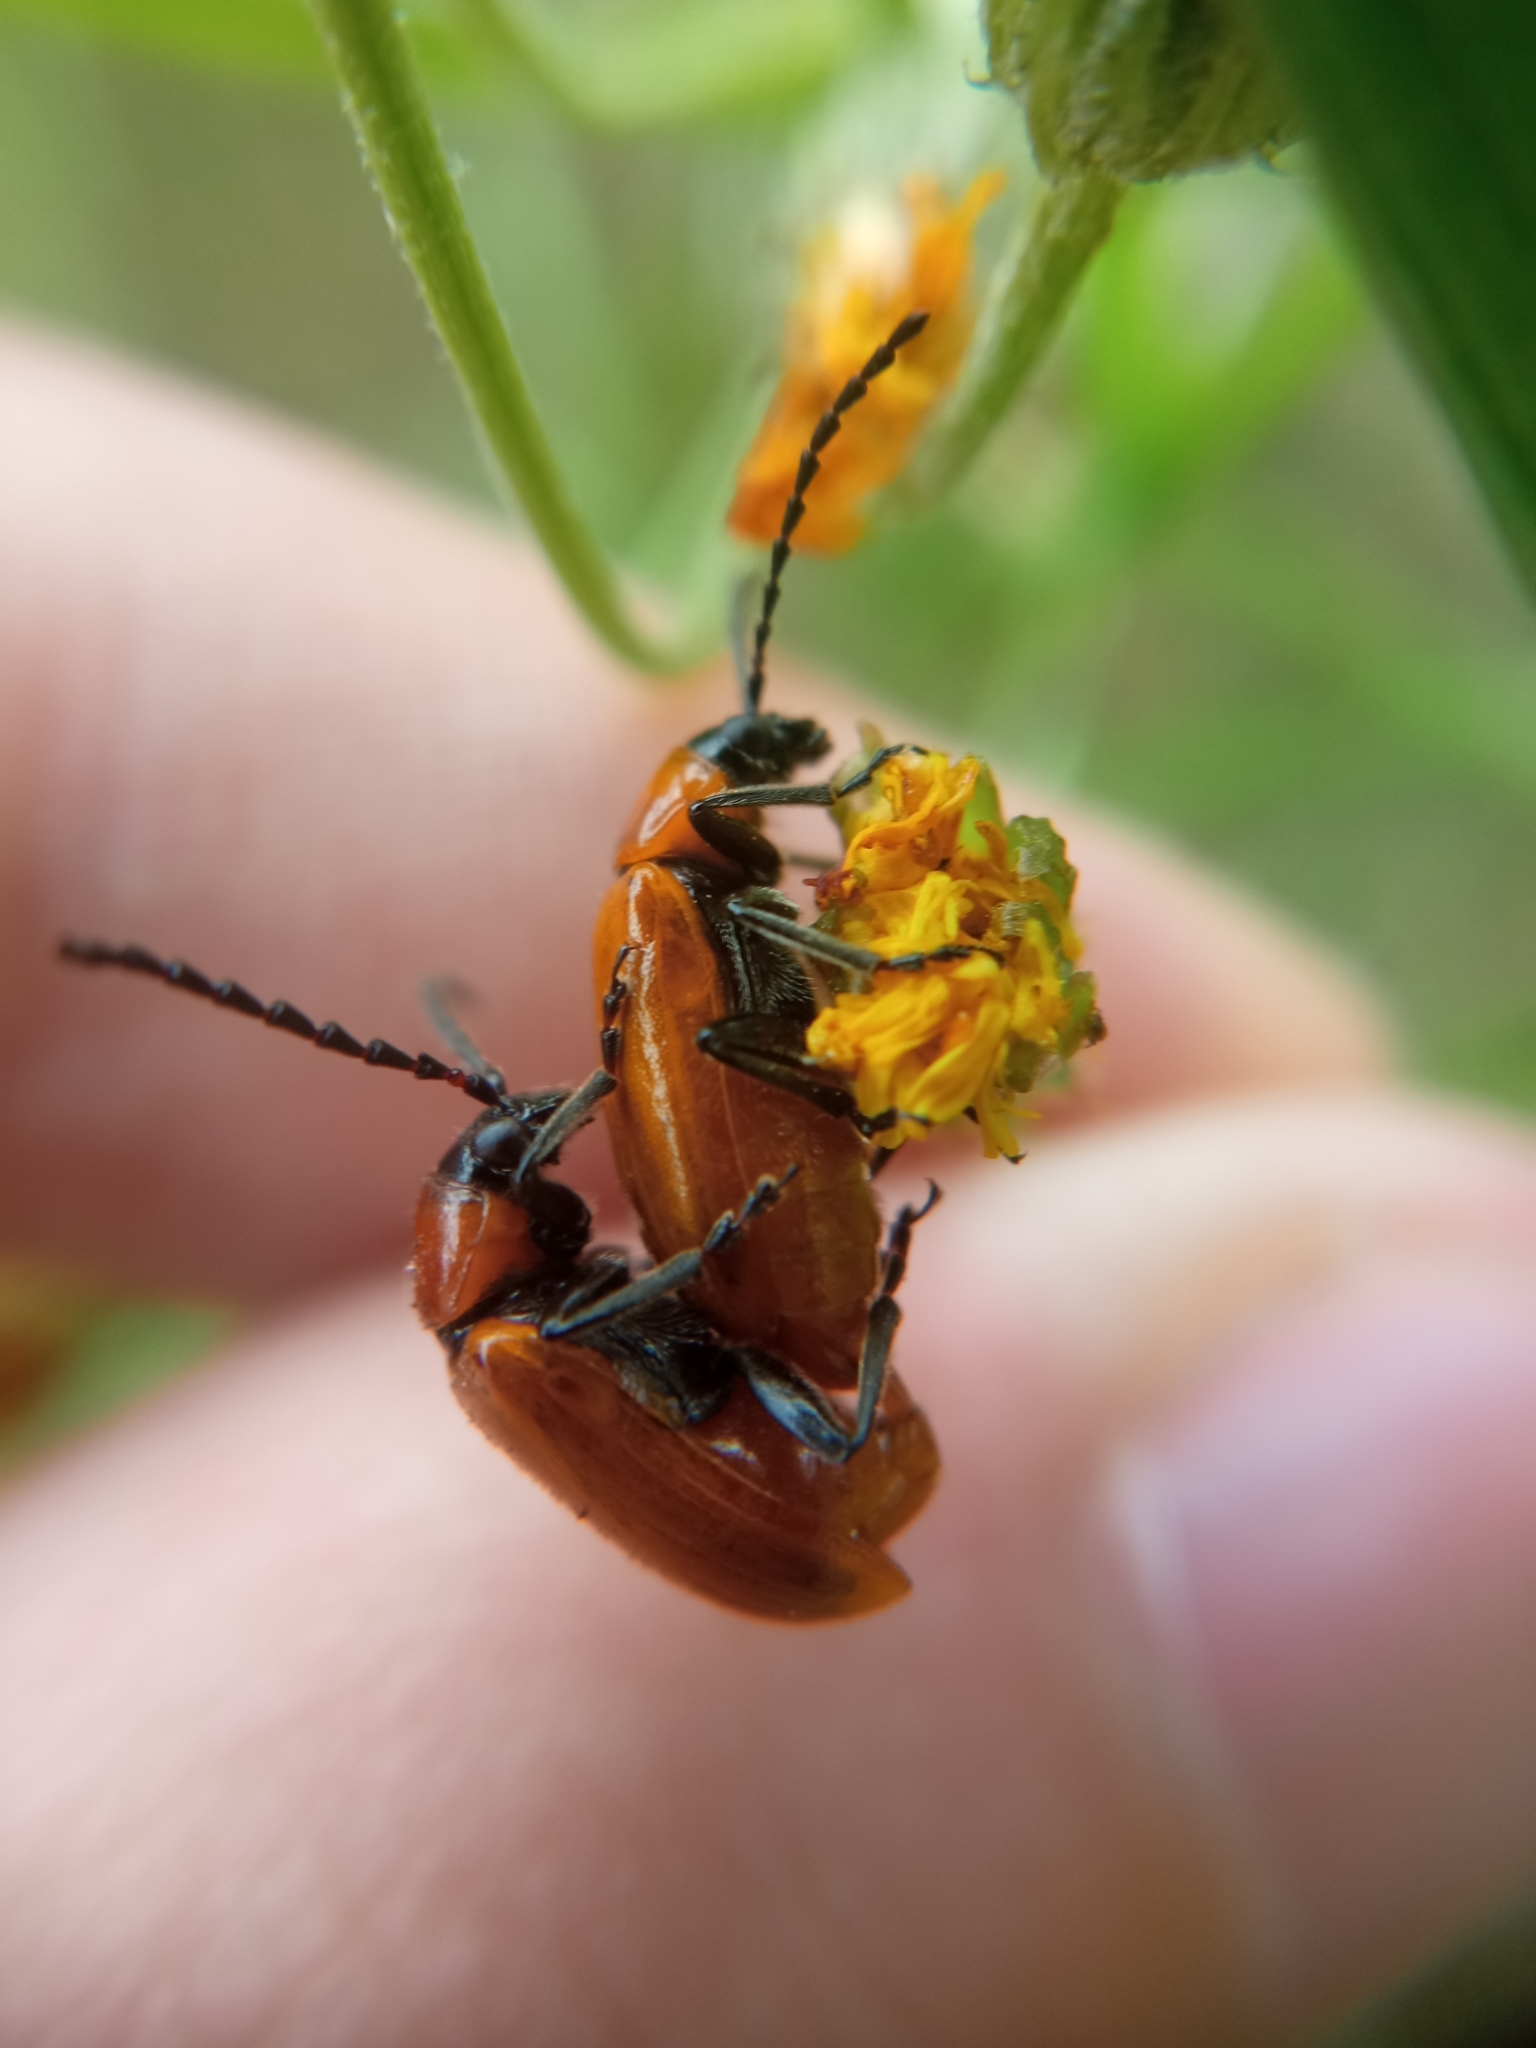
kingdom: Animalia
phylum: Arthropoda
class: Insecta
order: Coleoptera
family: Chrysomelidae
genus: Exosoma
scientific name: Exosoma lusitanicum
